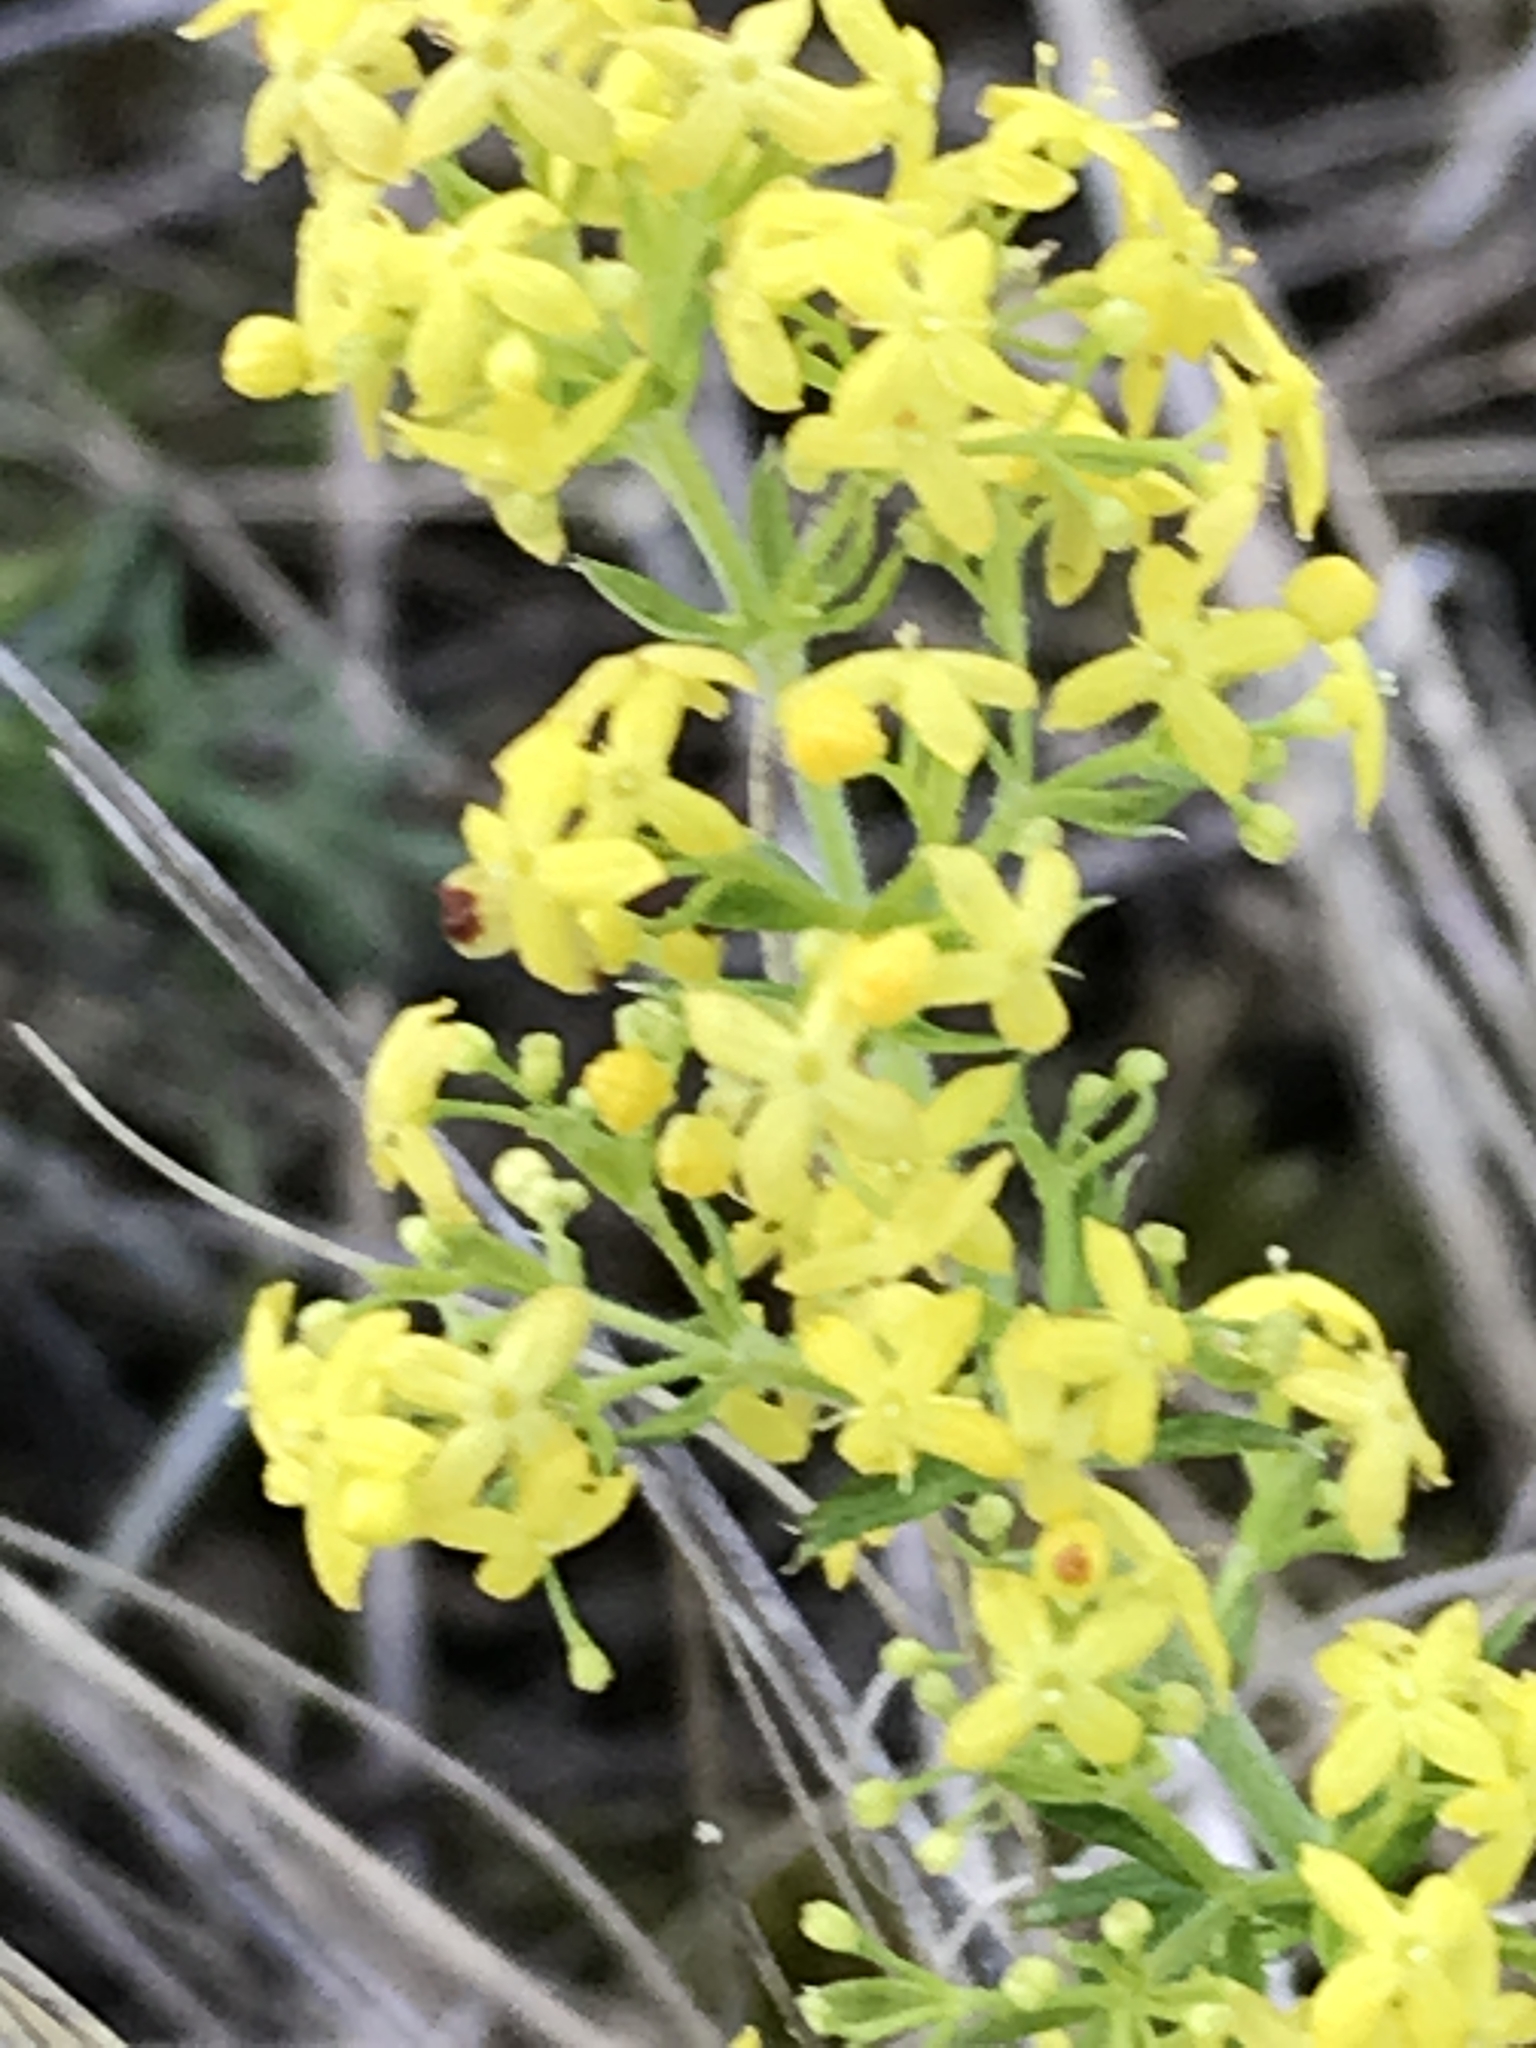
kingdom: Plantae
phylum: Tracheophyta
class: Magnoliopsida
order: Gentianales
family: Rubiaceae
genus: Galium
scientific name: Galium verum
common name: Lady's bedstraw
